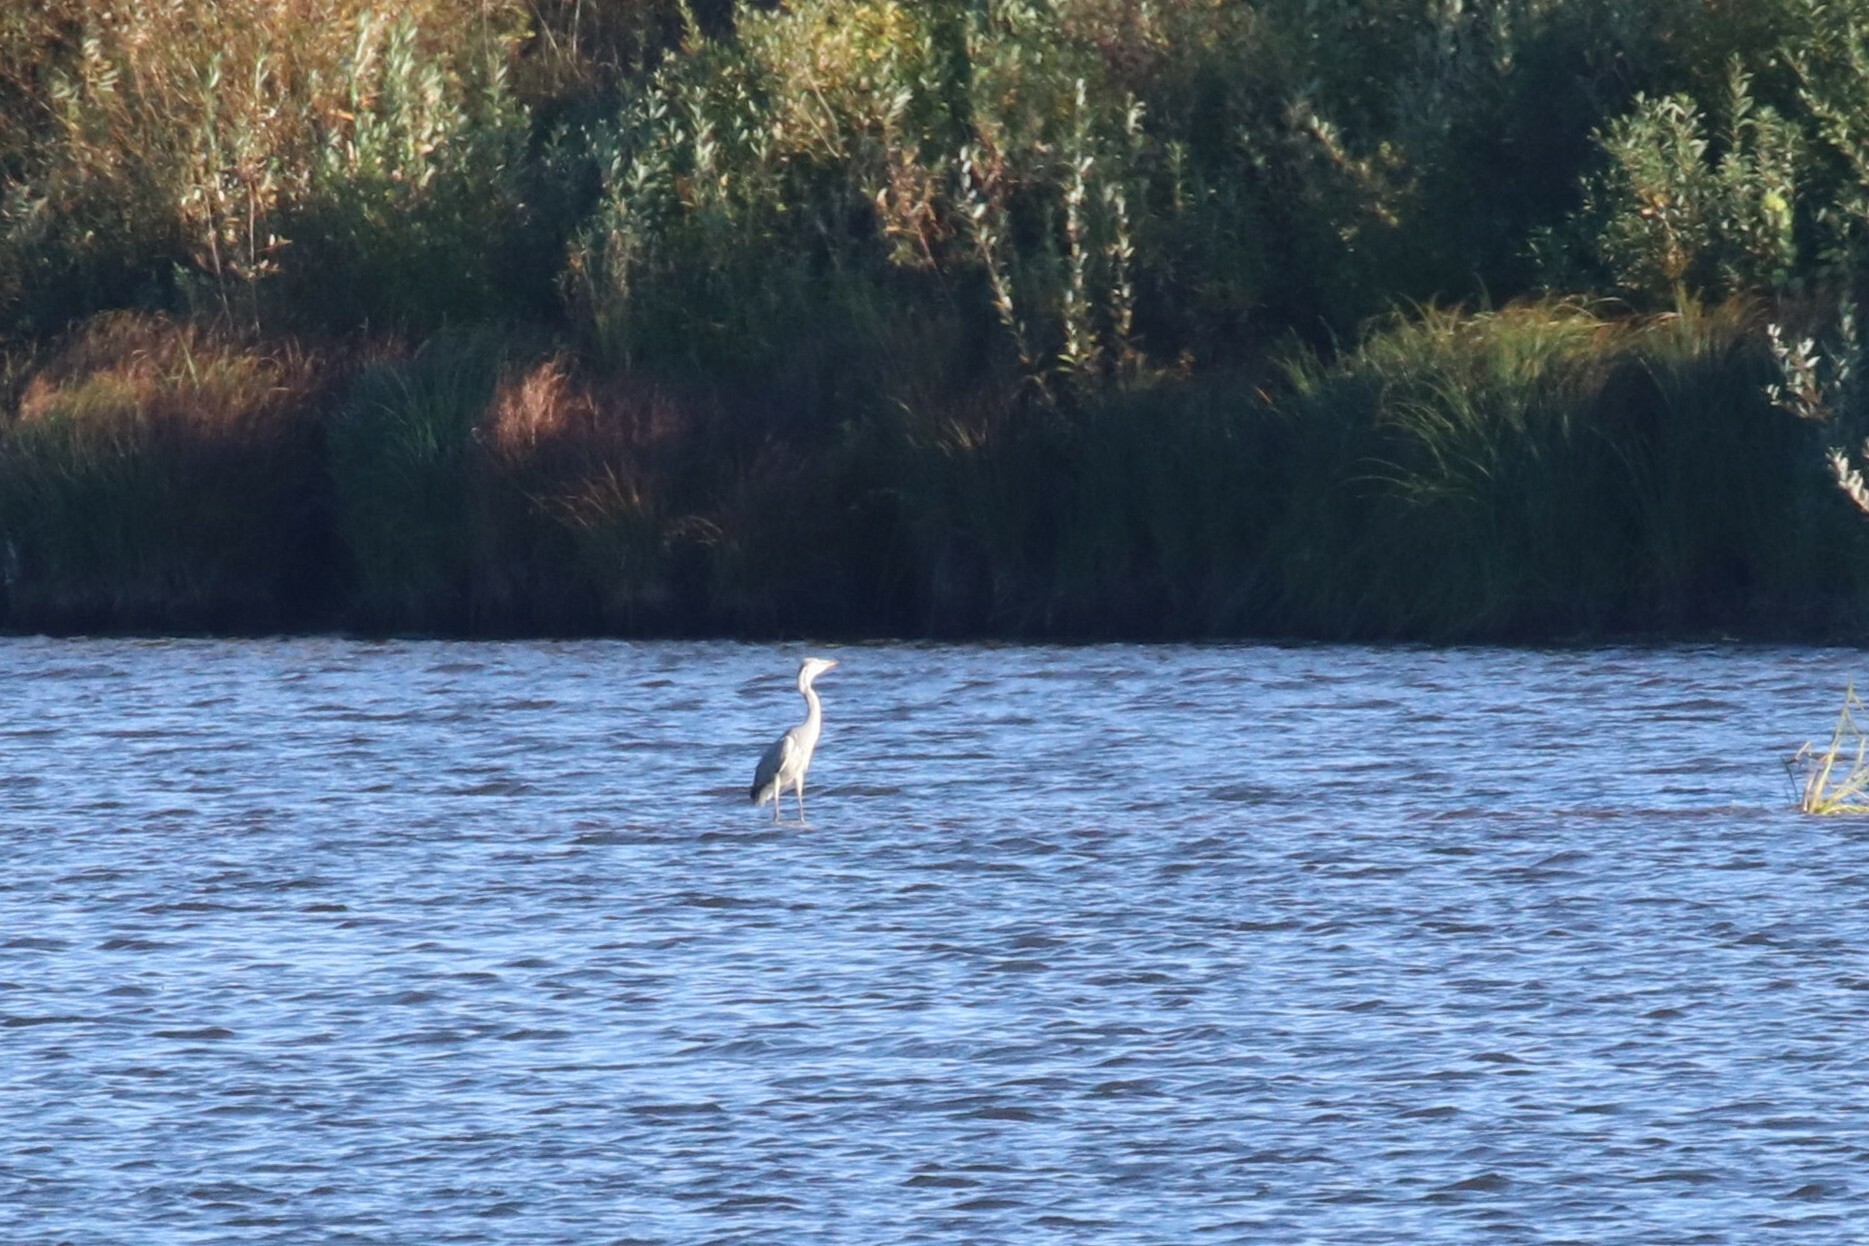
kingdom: Animalia
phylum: Chordata
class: Aves
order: Pelecaniformes
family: Ardeidae
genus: Ardea
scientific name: Ardea cinerea
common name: Grey heron
